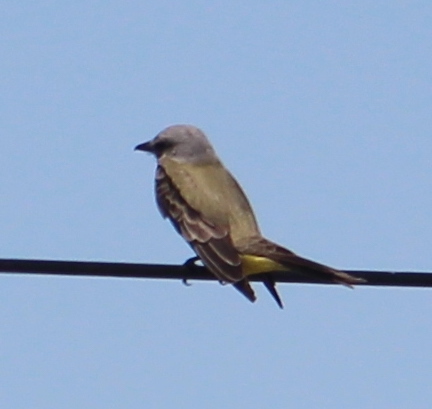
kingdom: Animalia
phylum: Chordata
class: Aves
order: Passeriformes
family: Tyrannidae
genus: Tyrannus
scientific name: Tyrannus melancholicus
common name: Tropical kingbird
